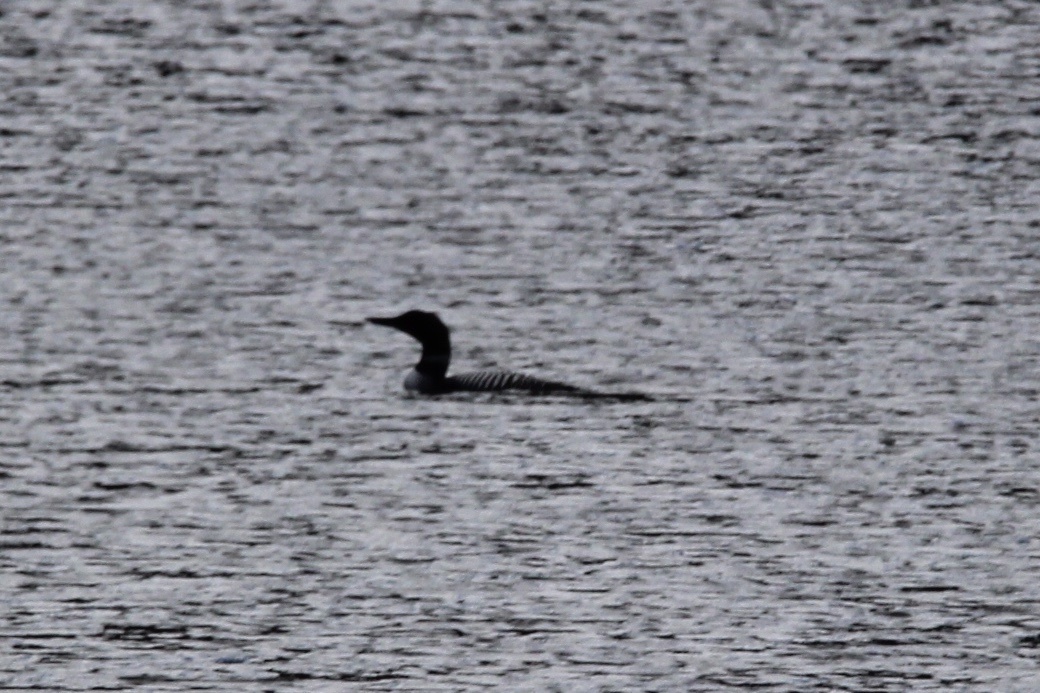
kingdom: Animalia
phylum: Chordata
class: Aves
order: Gaviiformes
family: Gaviidae
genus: Gavia
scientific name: Gavia immer
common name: Common loon
